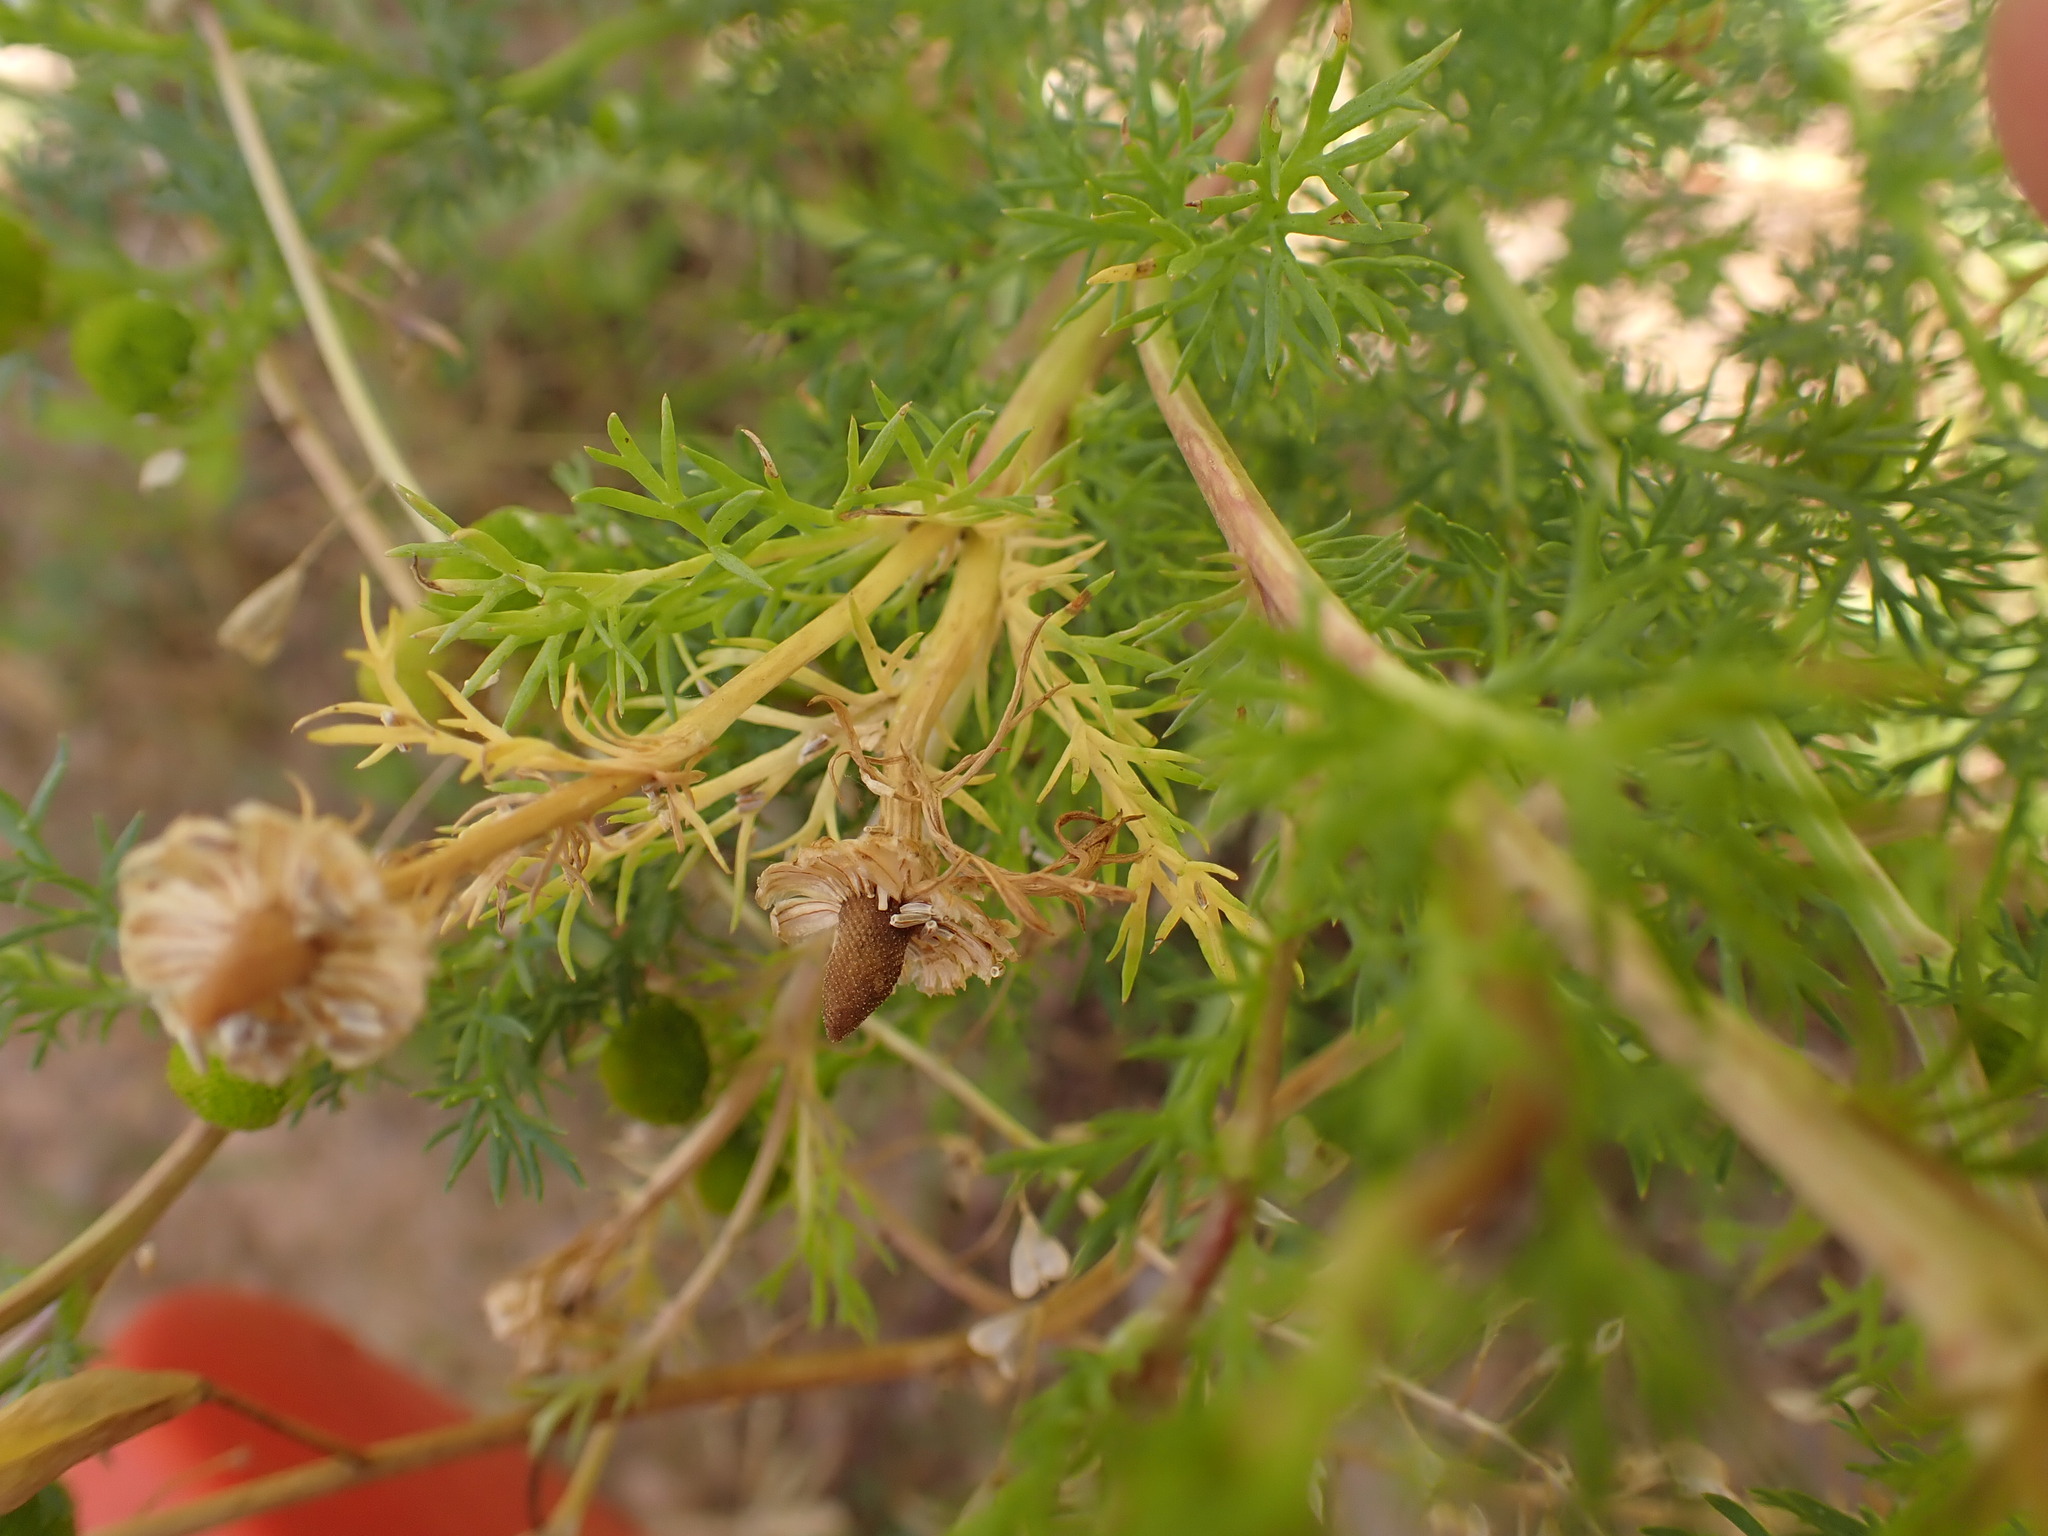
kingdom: Plantae
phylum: Tracheophyta
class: Magnoliopsida
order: Asterales
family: Asteraceae
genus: Matricaria
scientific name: Matricaria discoidea
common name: Disc mayweed
